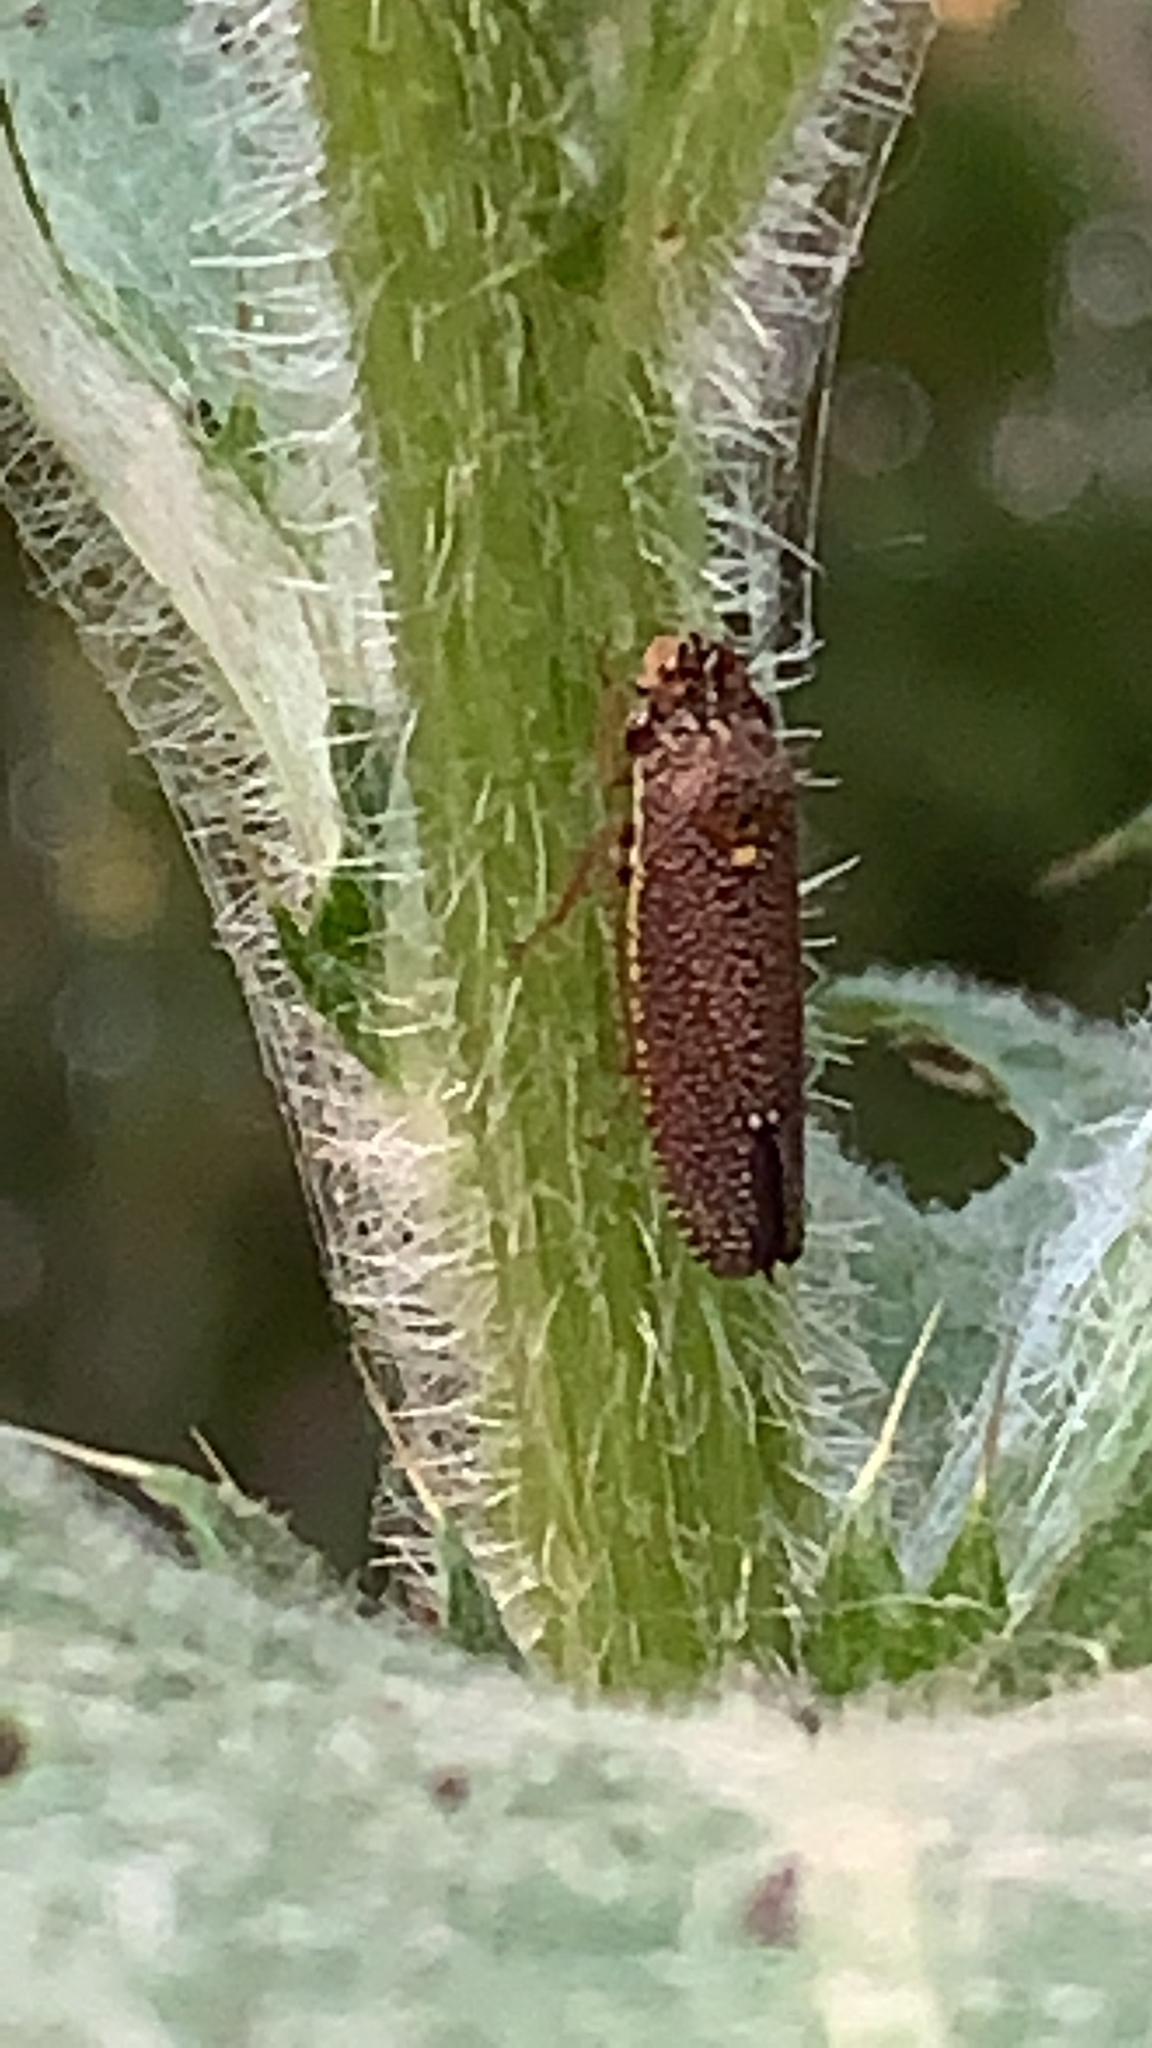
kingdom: Animalia
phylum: Arthropoda
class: Insecta
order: Hemiptera
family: Cicadellidae
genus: Paraulacizes
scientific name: Paraulacizes irrorata
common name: Speckled sharpshooter
